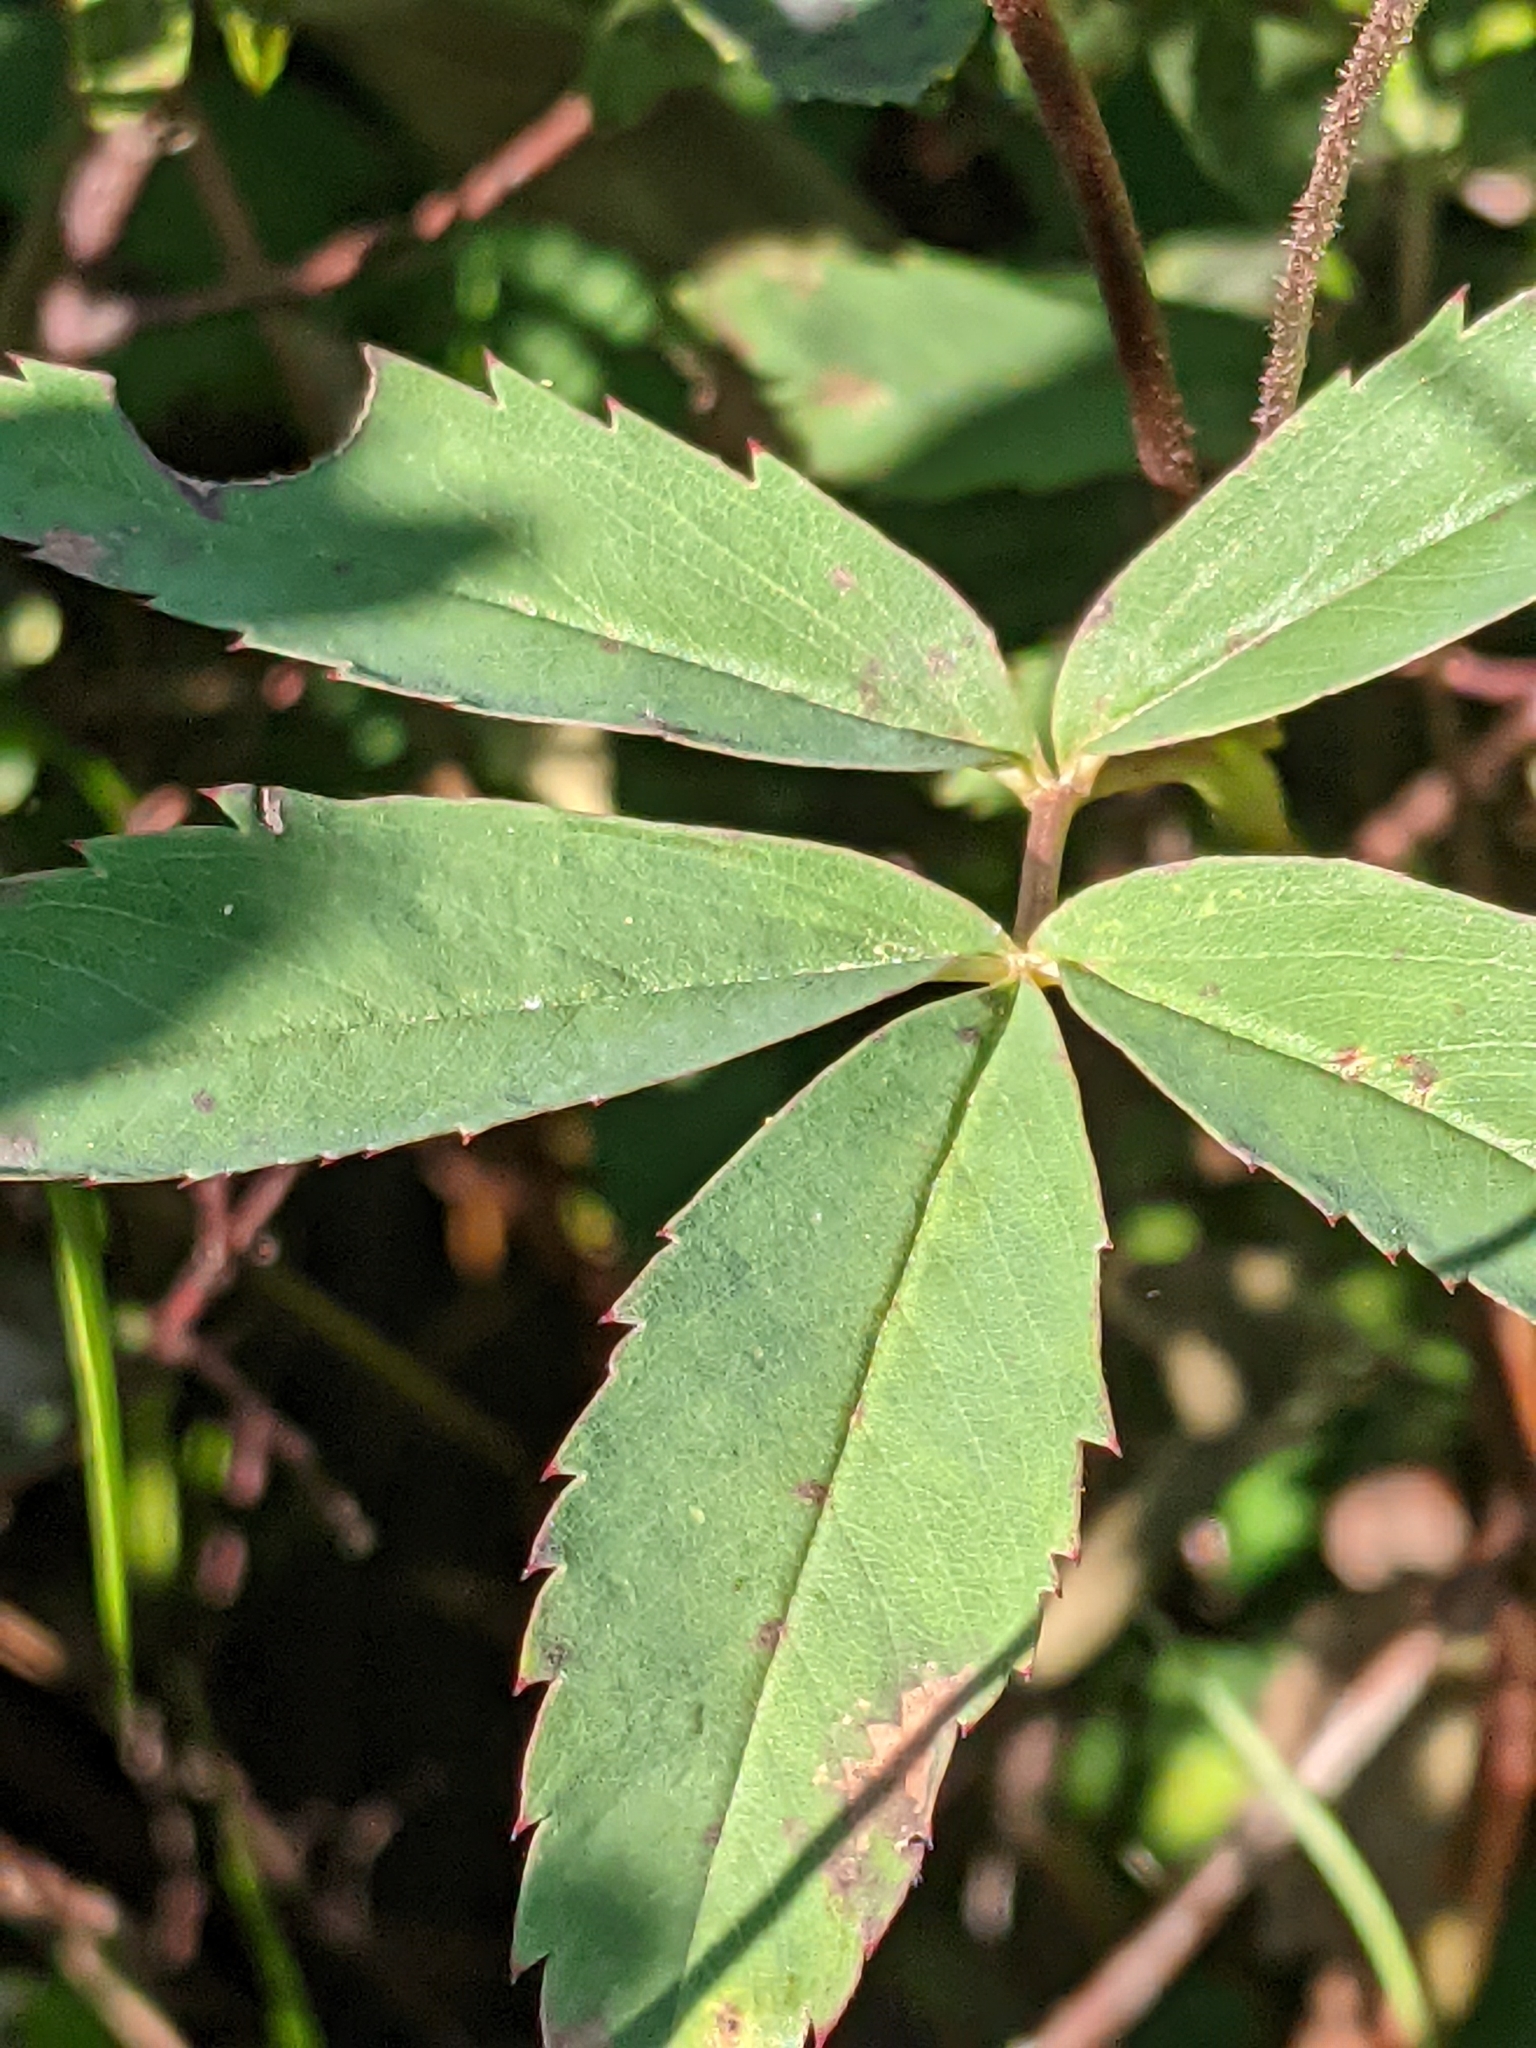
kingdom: Plantae
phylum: Tracheophyta
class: Magnoliopsida
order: Rosales
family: Rosaceae
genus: Comarum
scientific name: Comarum palustre
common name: Marsh cinquefoil
